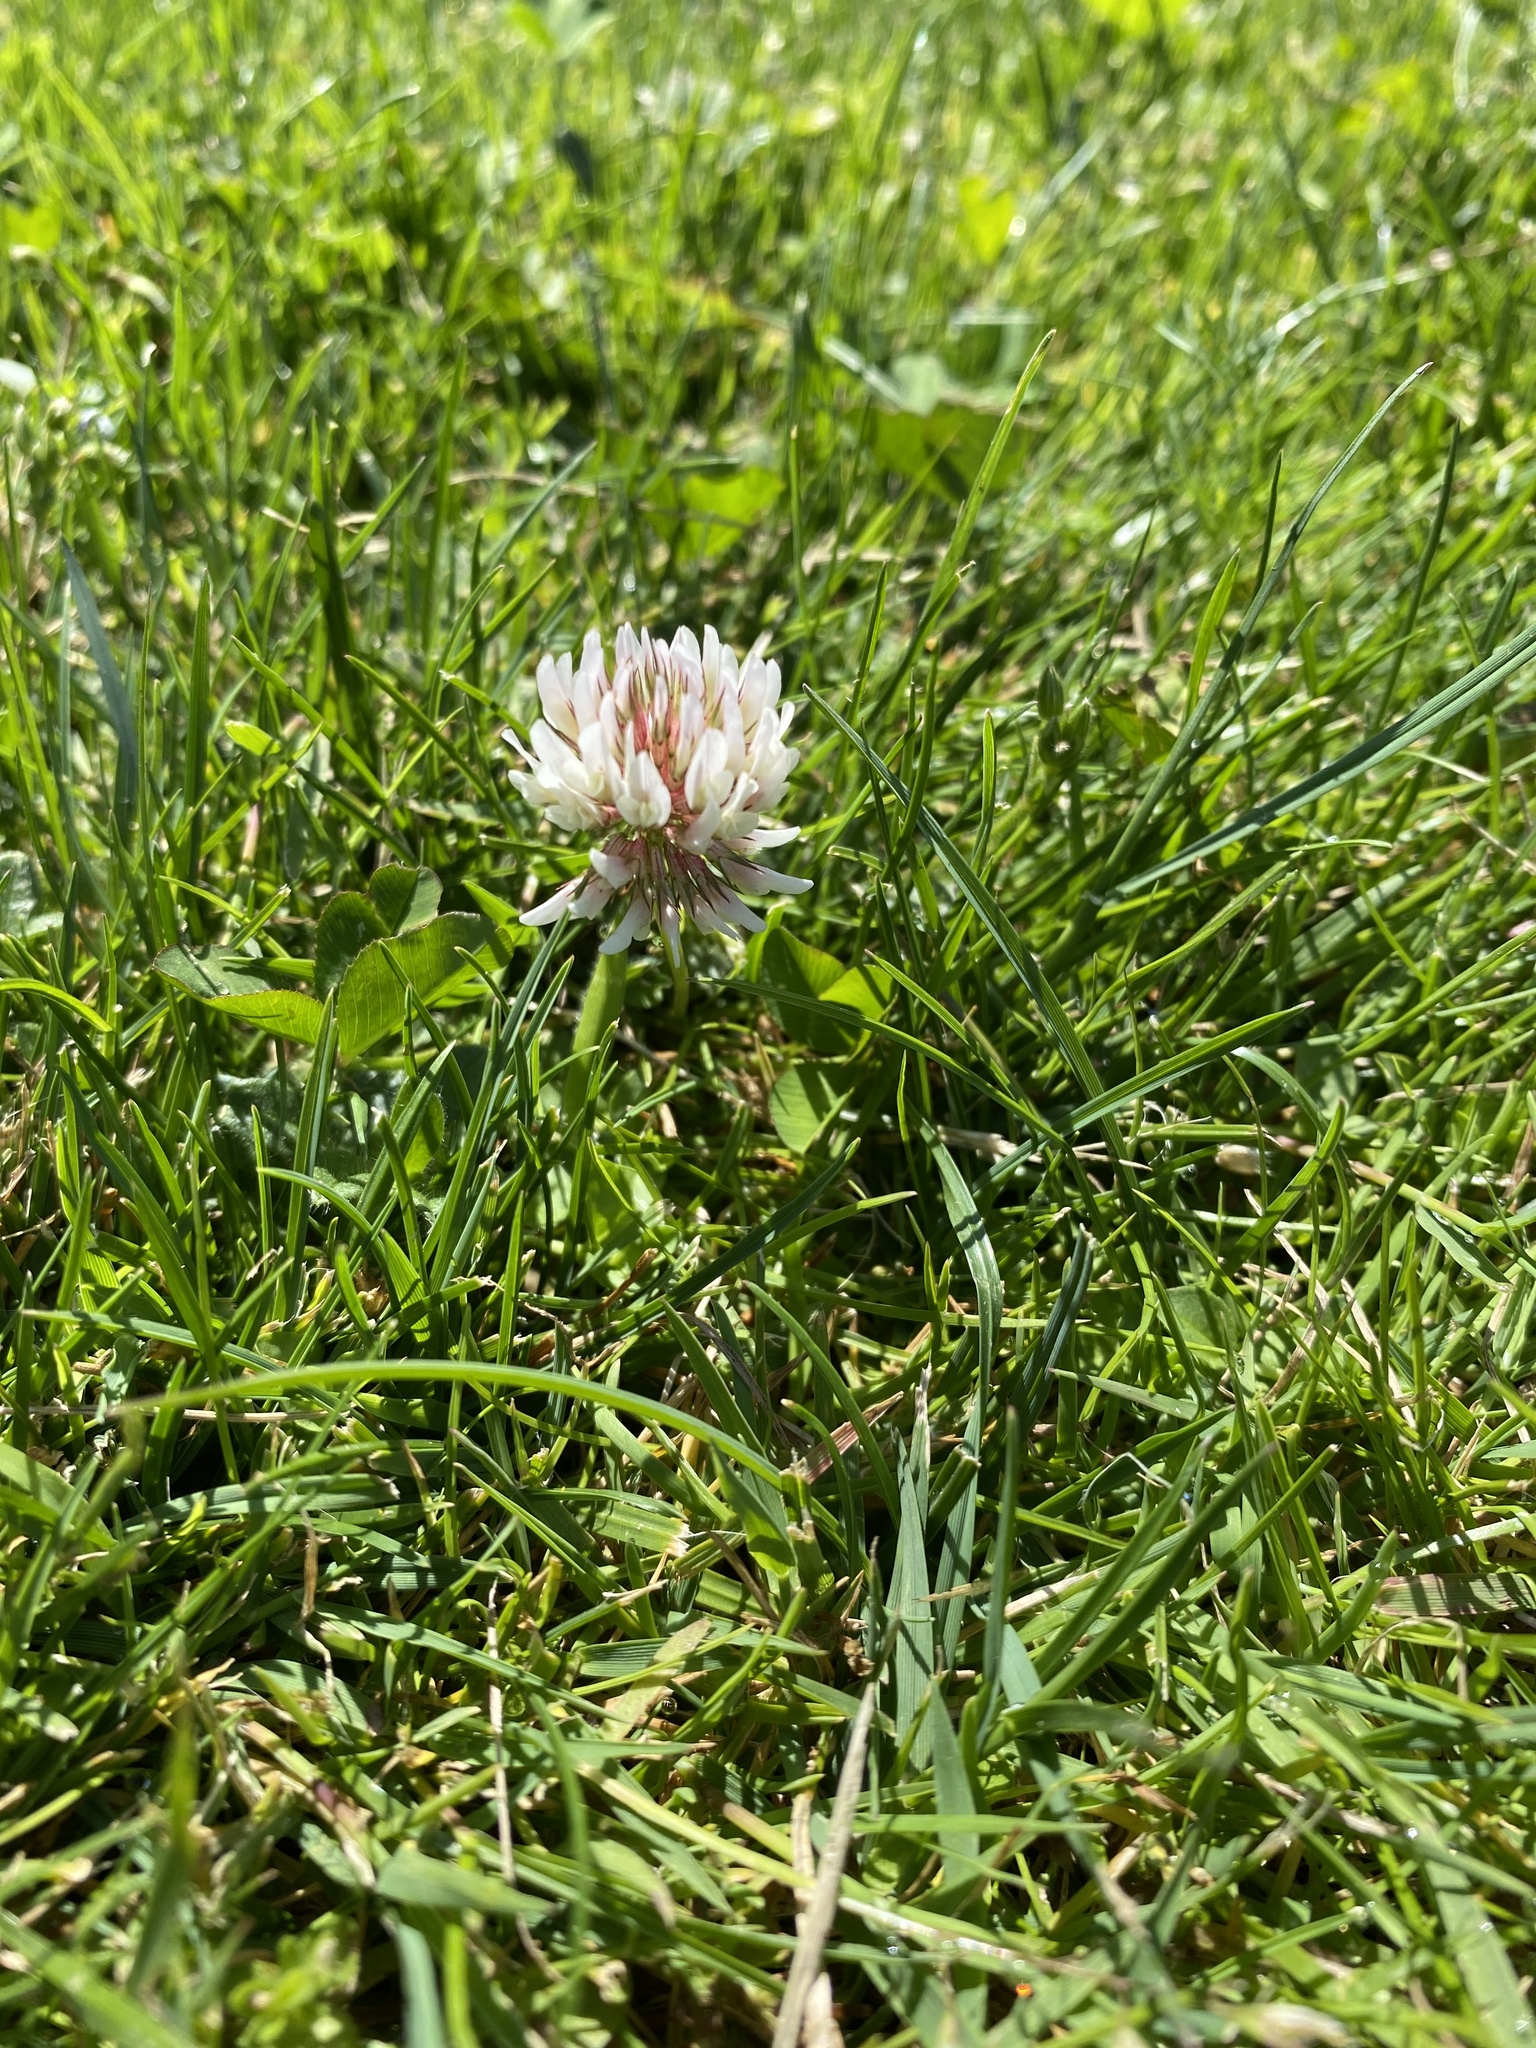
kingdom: Plantae
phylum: Tracheophyta
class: Magnoliopsida
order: Fabales
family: Fabaceae
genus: Trifolium
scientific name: Trifolium repens
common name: White clover
